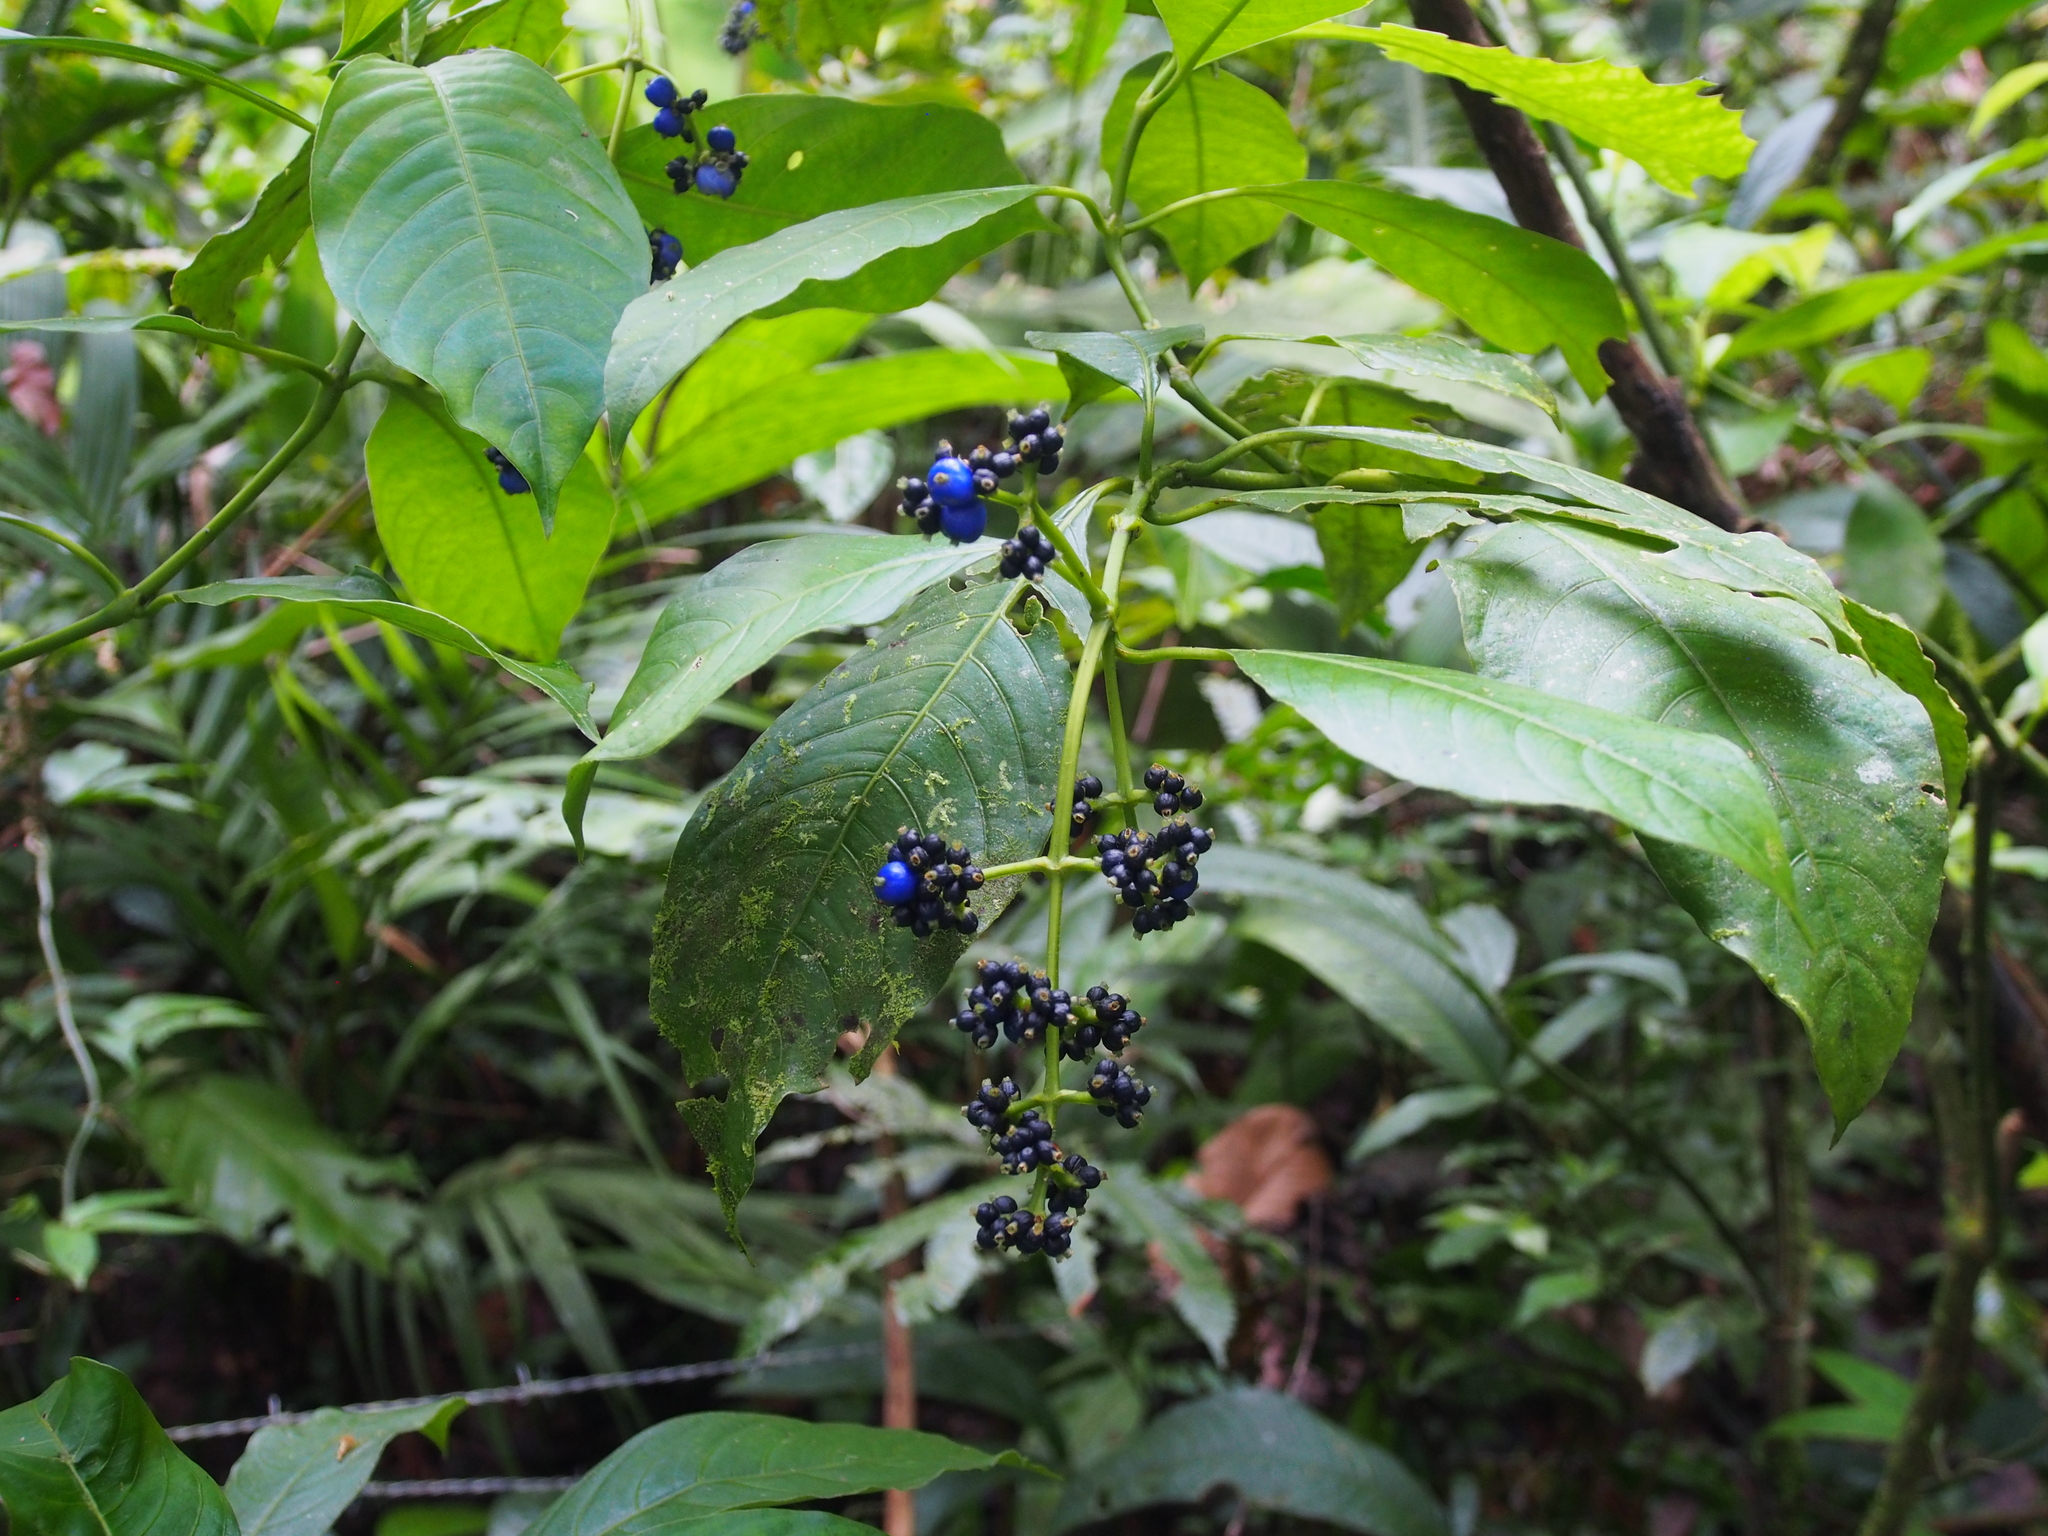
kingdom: Plantae
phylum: Tracheophyta
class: Magnoliopsida
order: Gentianales
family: Rubiaceae
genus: Palicourea
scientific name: Palicourea brachiata
